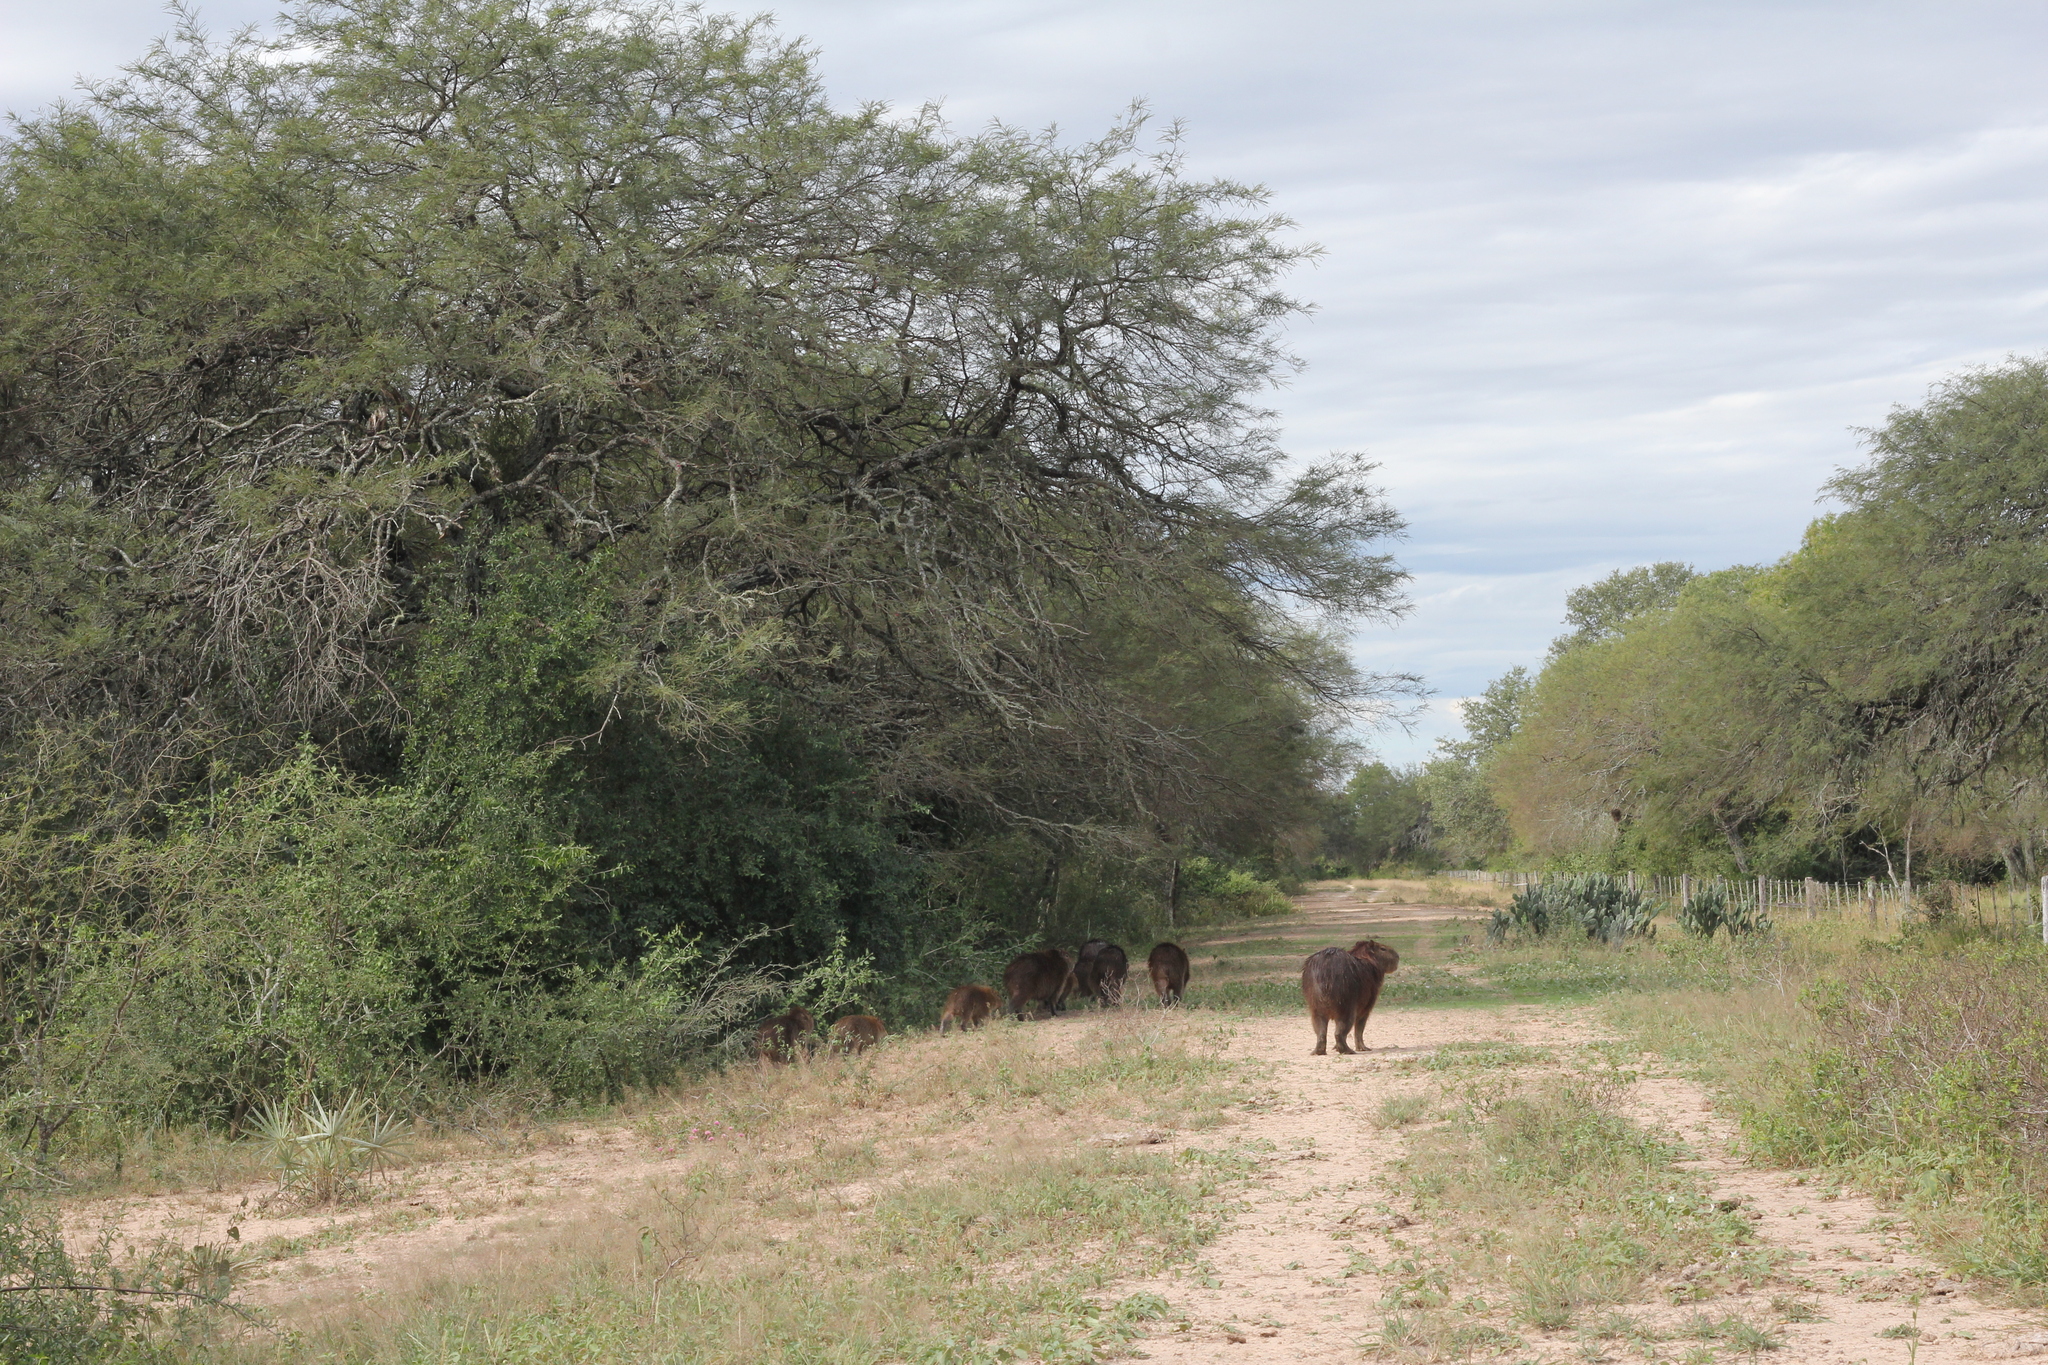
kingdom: Animalia
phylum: Chordata
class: Mammalia
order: Rodentia
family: Caviidae
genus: Hydrochoerus
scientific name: Hydrochoerus hydrochaeris
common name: Capybara
